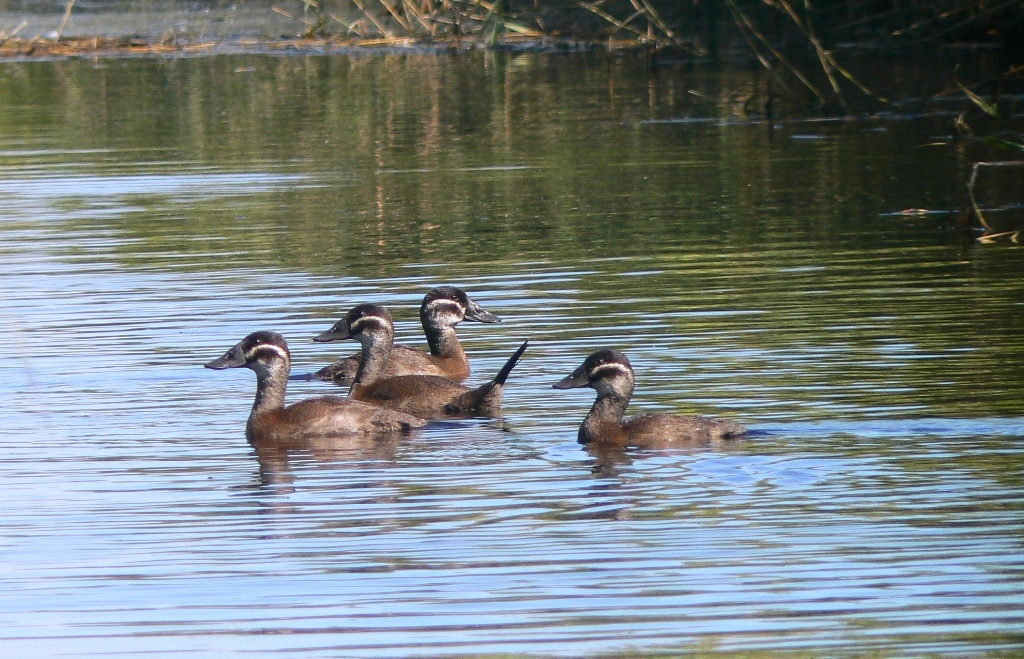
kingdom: Animalia
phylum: Chordata
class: Aves
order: Anseriformes
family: Anatidae
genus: Oxyura
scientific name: Oxyura leucocephala
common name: White-headed duck
